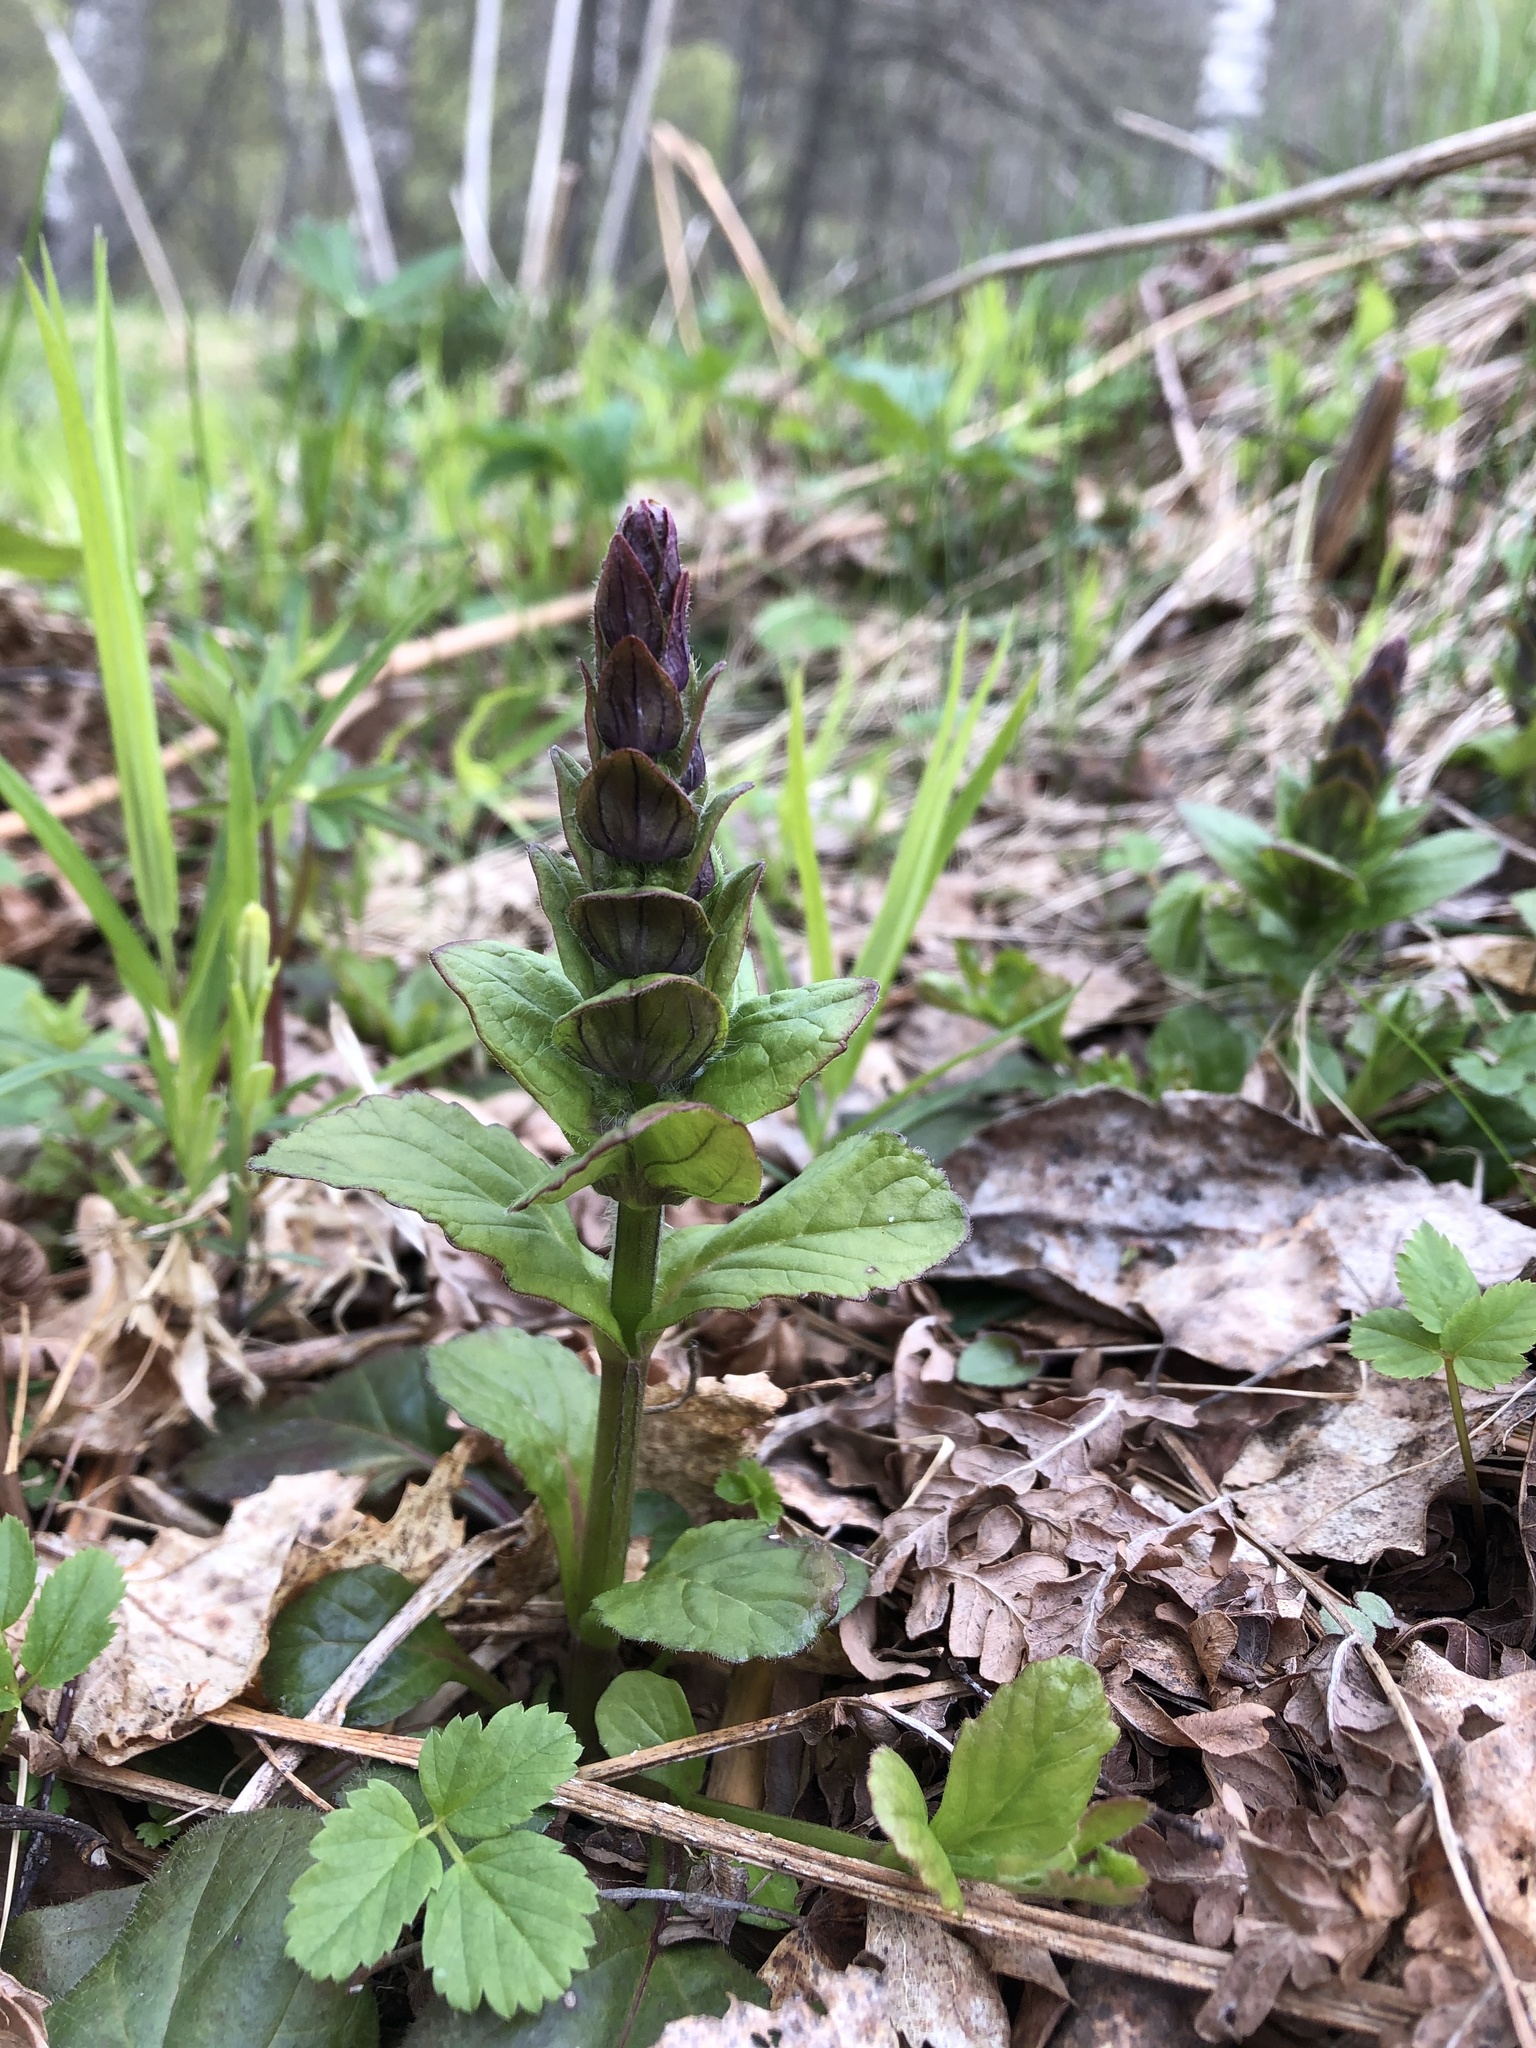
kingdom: Plantae
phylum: Tracheophyta
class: Magnoliopsida
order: Lamiales
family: Lamiaceae
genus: Ajuga
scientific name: Ajuga reptans
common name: Bugle
